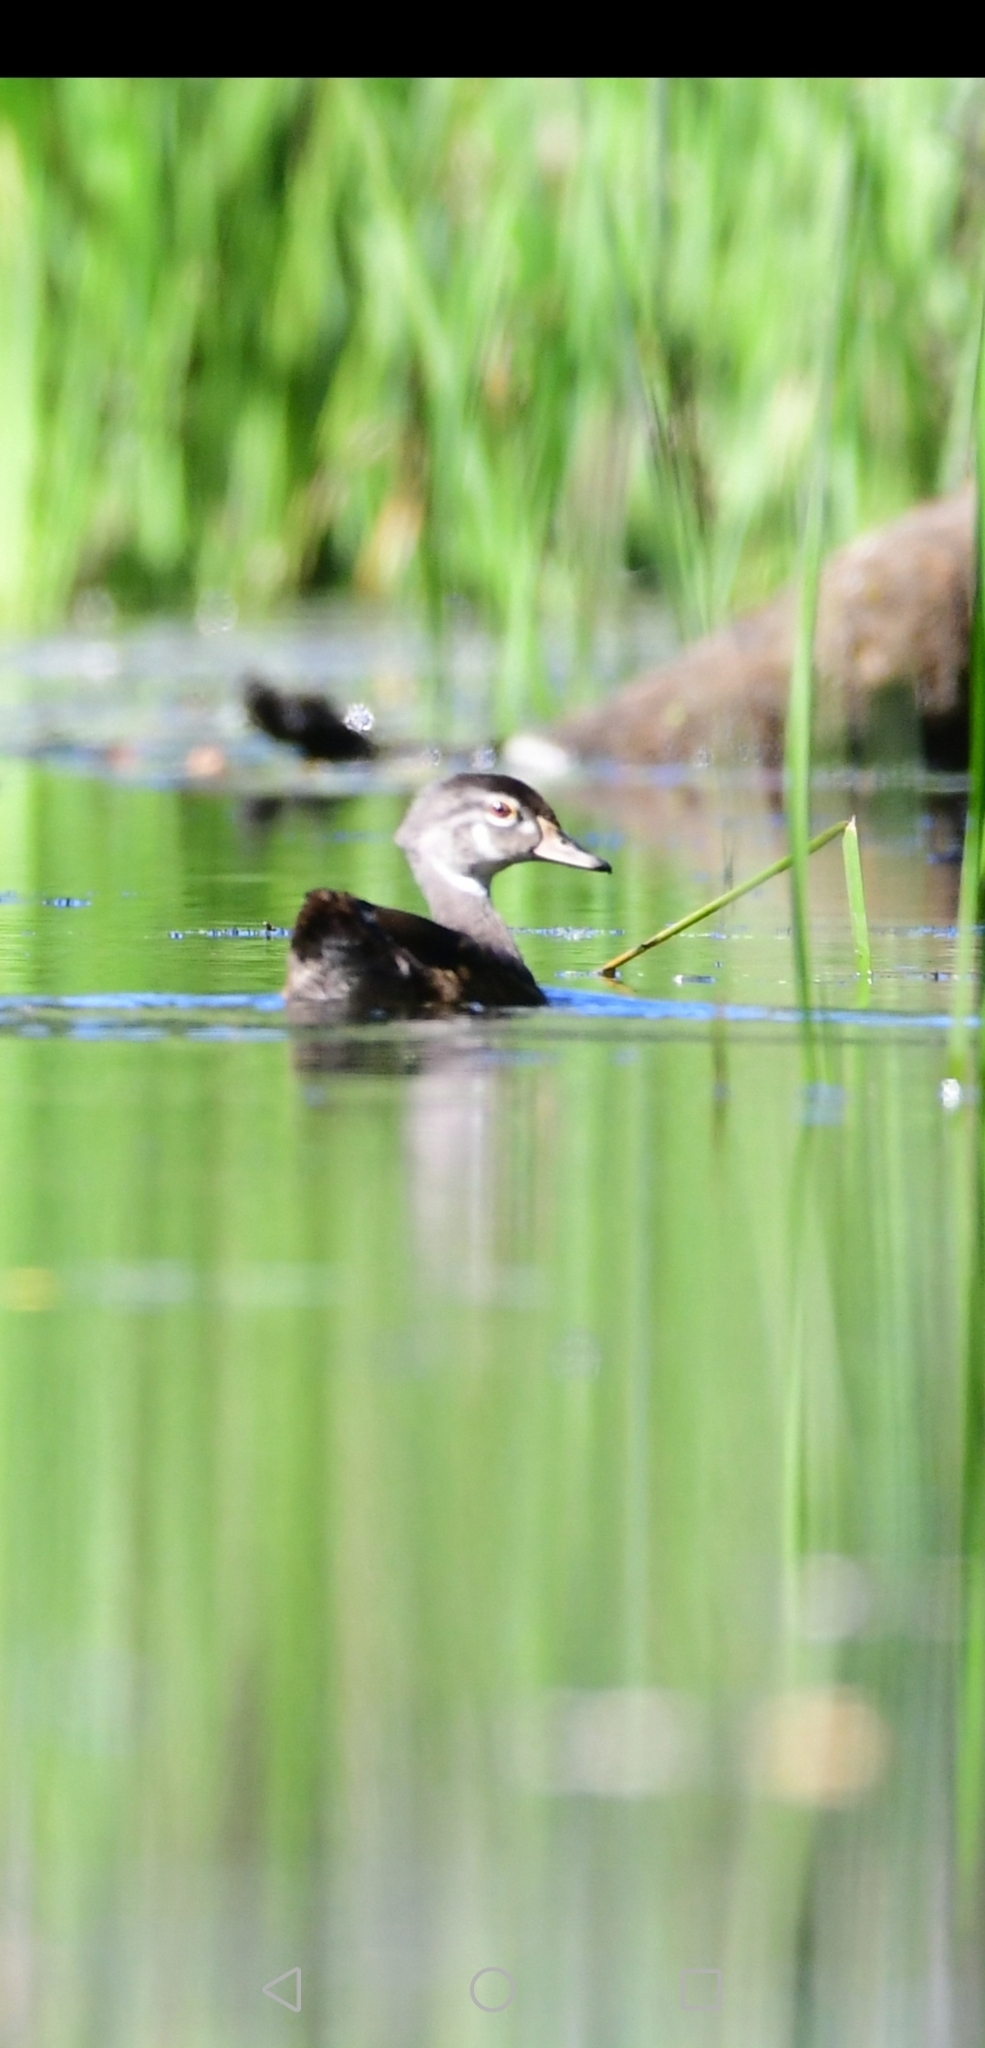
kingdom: Animalia
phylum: Chordata
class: Aves
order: Anseriformes
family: Anatidae
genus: Aix
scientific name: Aix sponsa
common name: Wood duck
